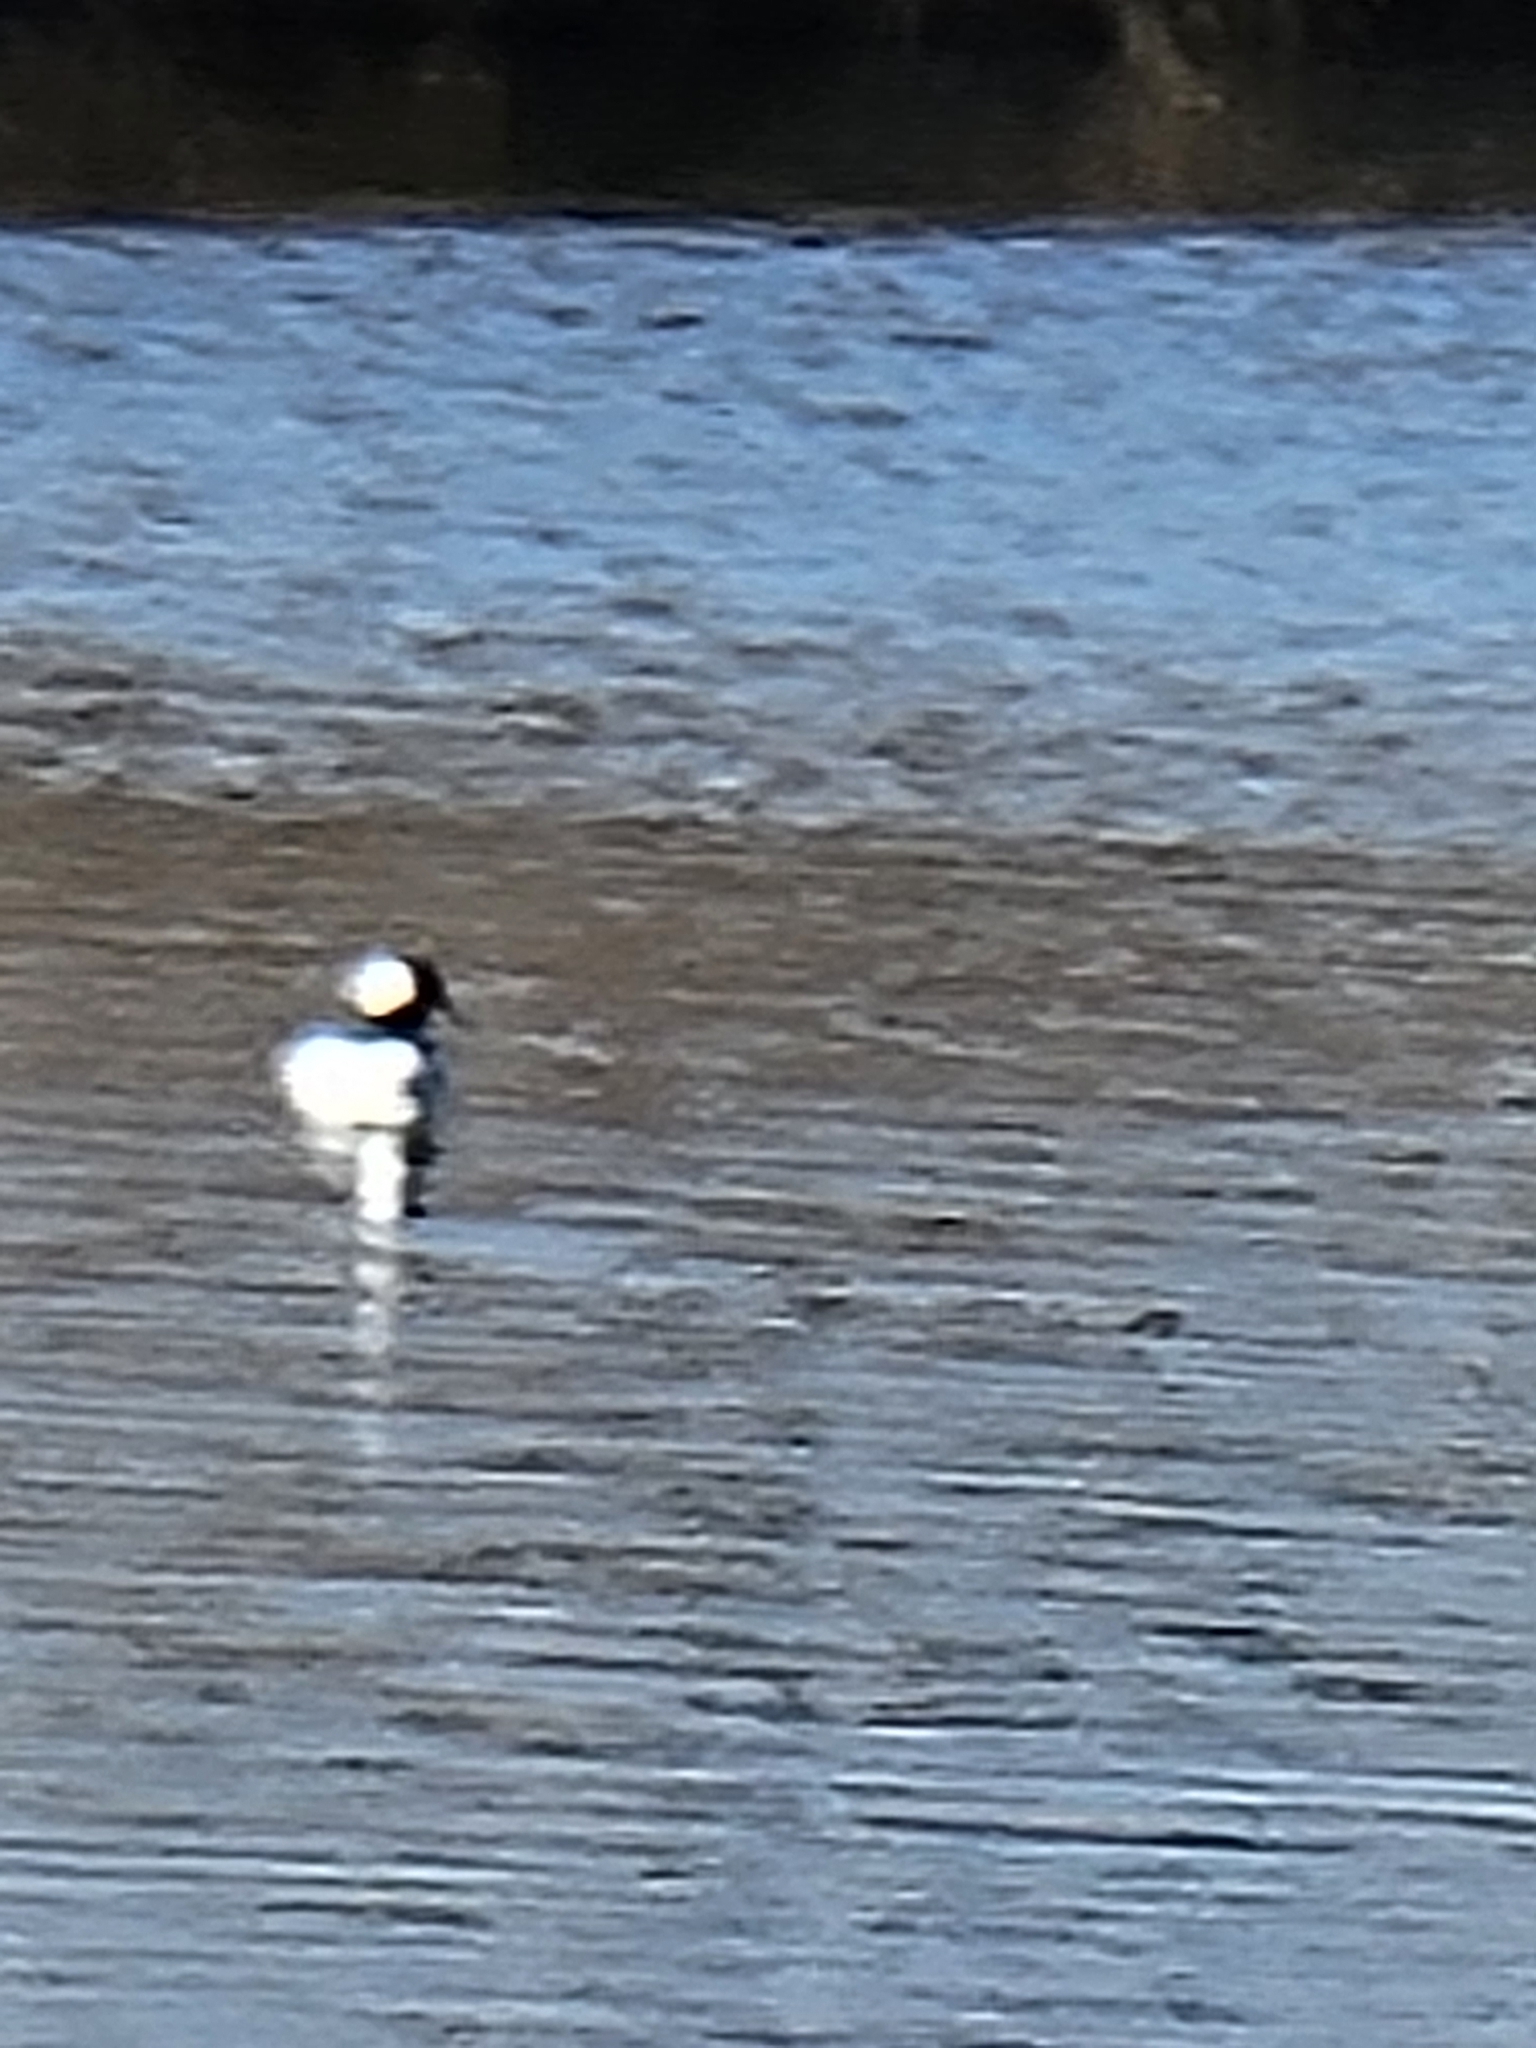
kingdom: Animalia
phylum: Chordata
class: Aves
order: Anseriformes
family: Anatidae
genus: Bucephala
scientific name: Bucephala albeola
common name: Bufflehead
